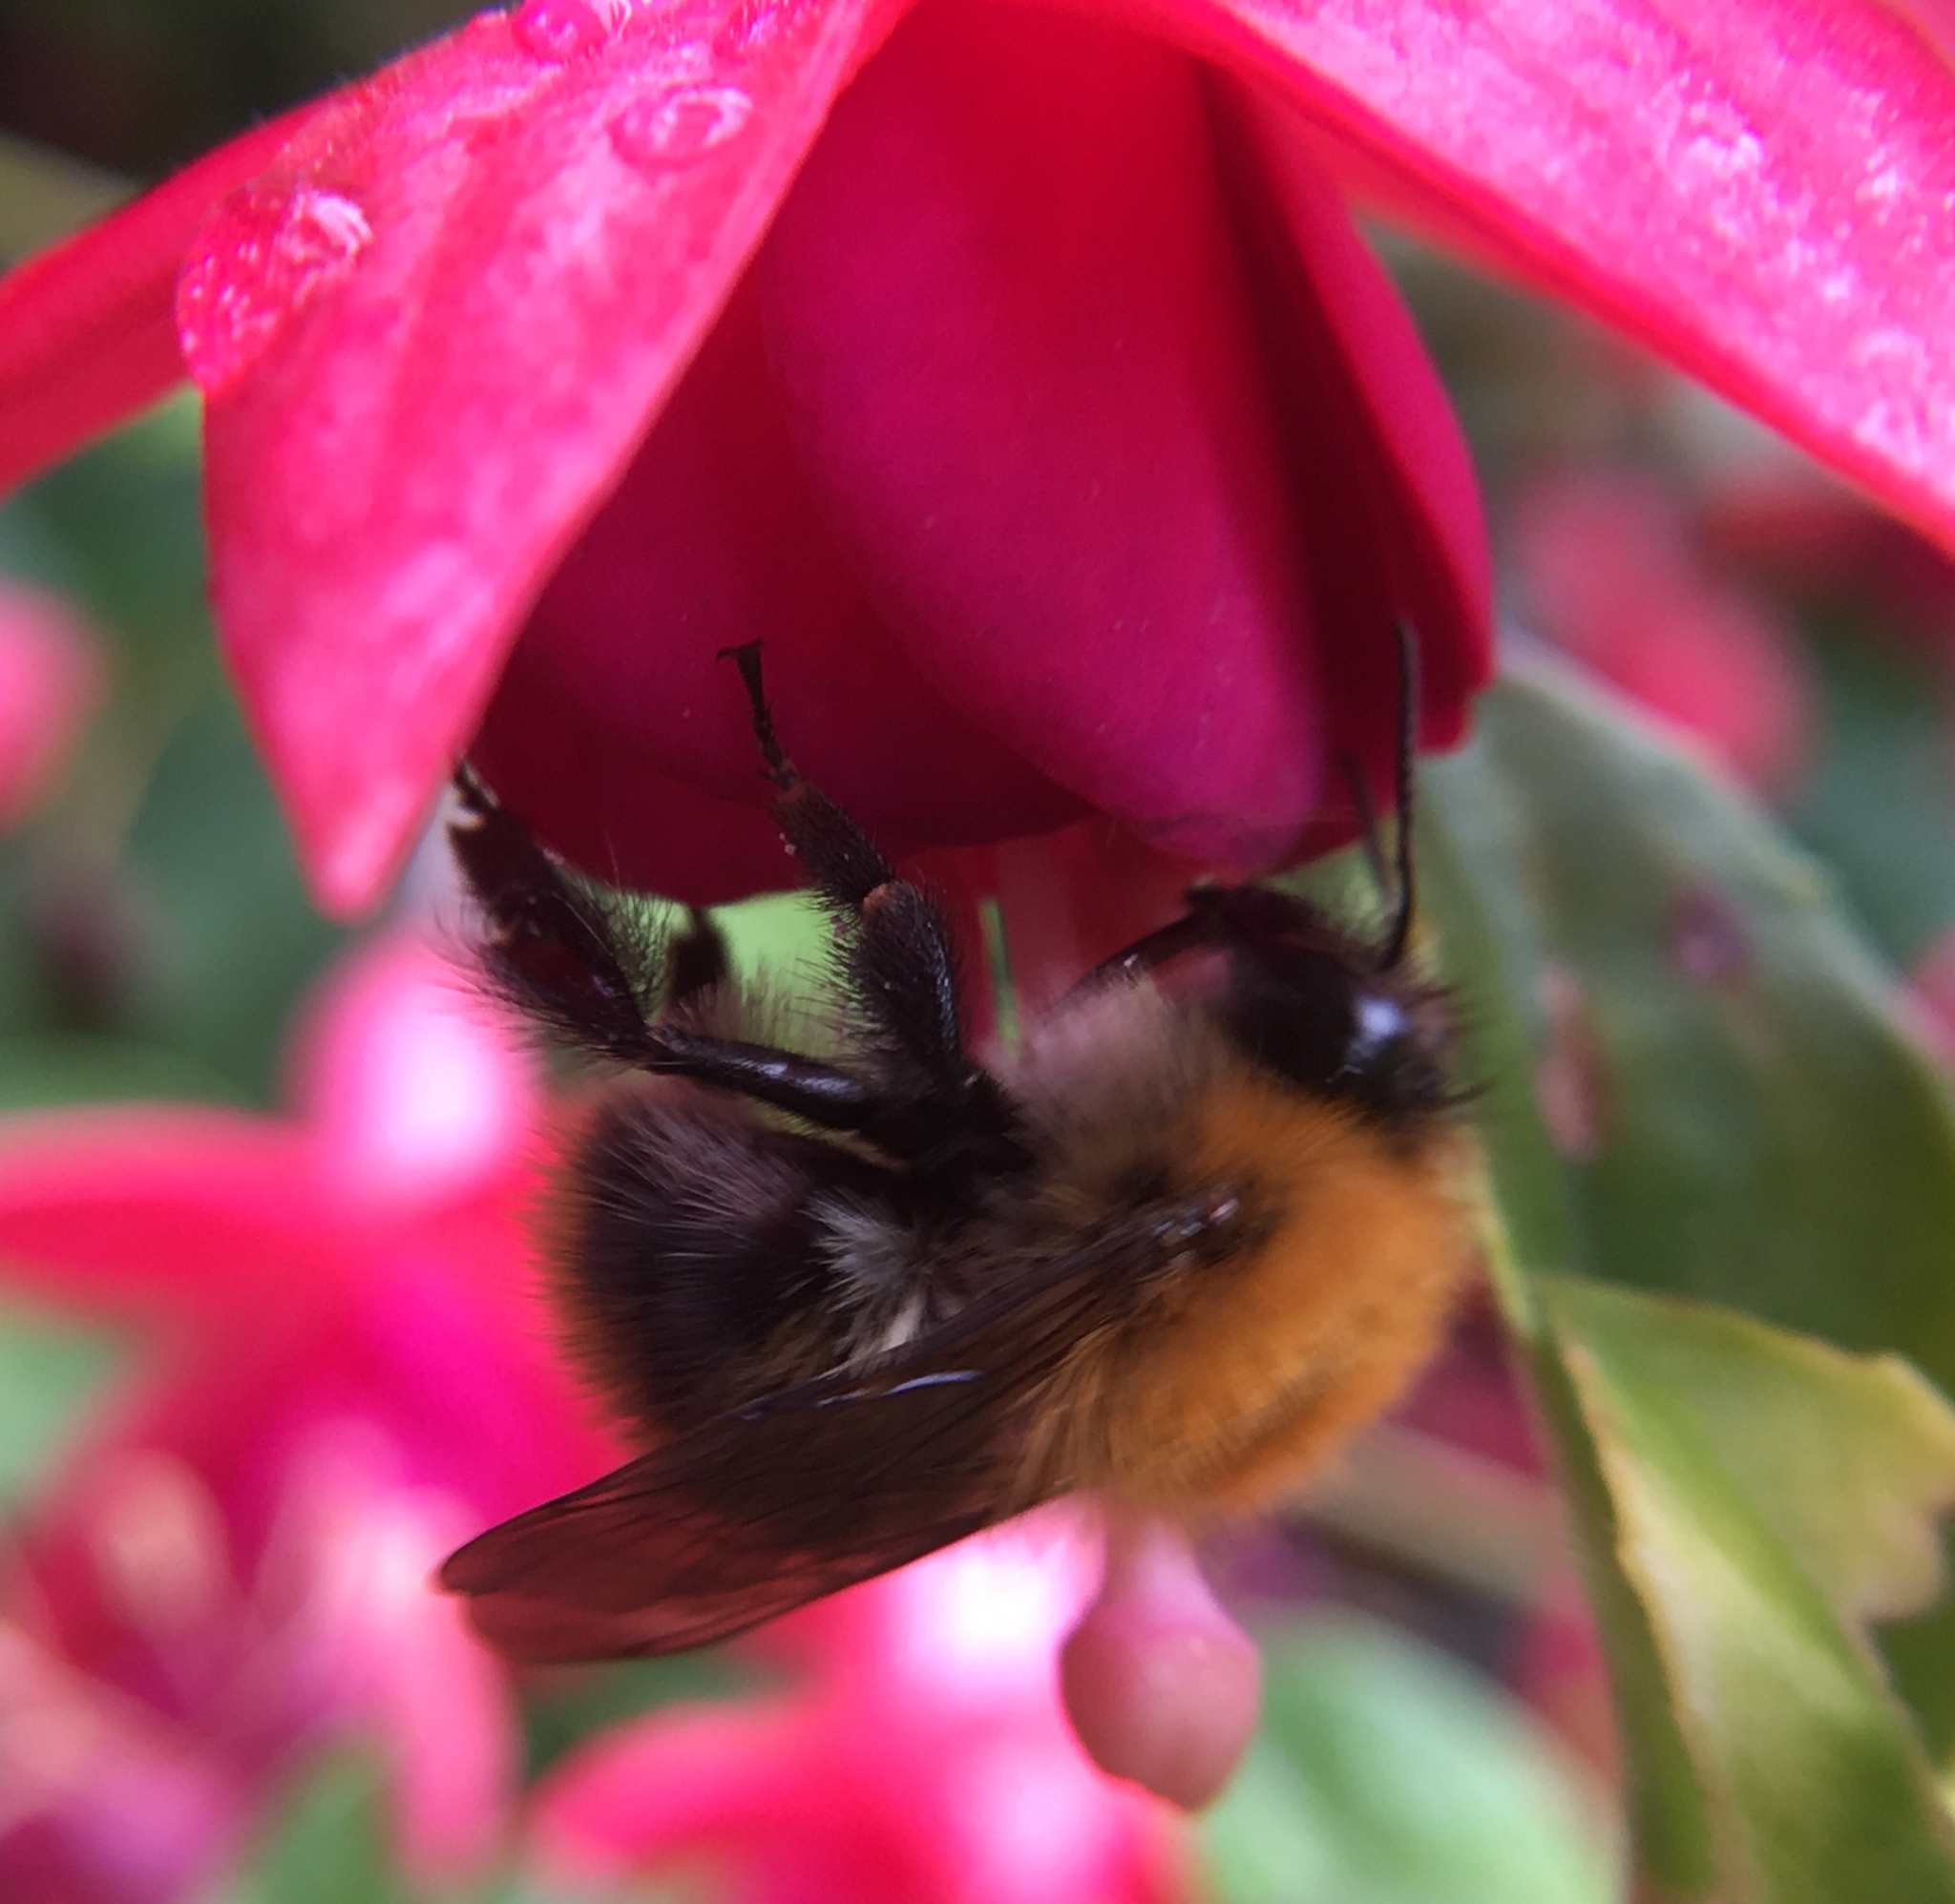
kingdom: Animalia
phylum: Arthropoda
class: Insecta
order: Hymenoptera
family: Apidae
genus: Bombus
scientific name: Bombus pascuorum
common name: Common carder bee
